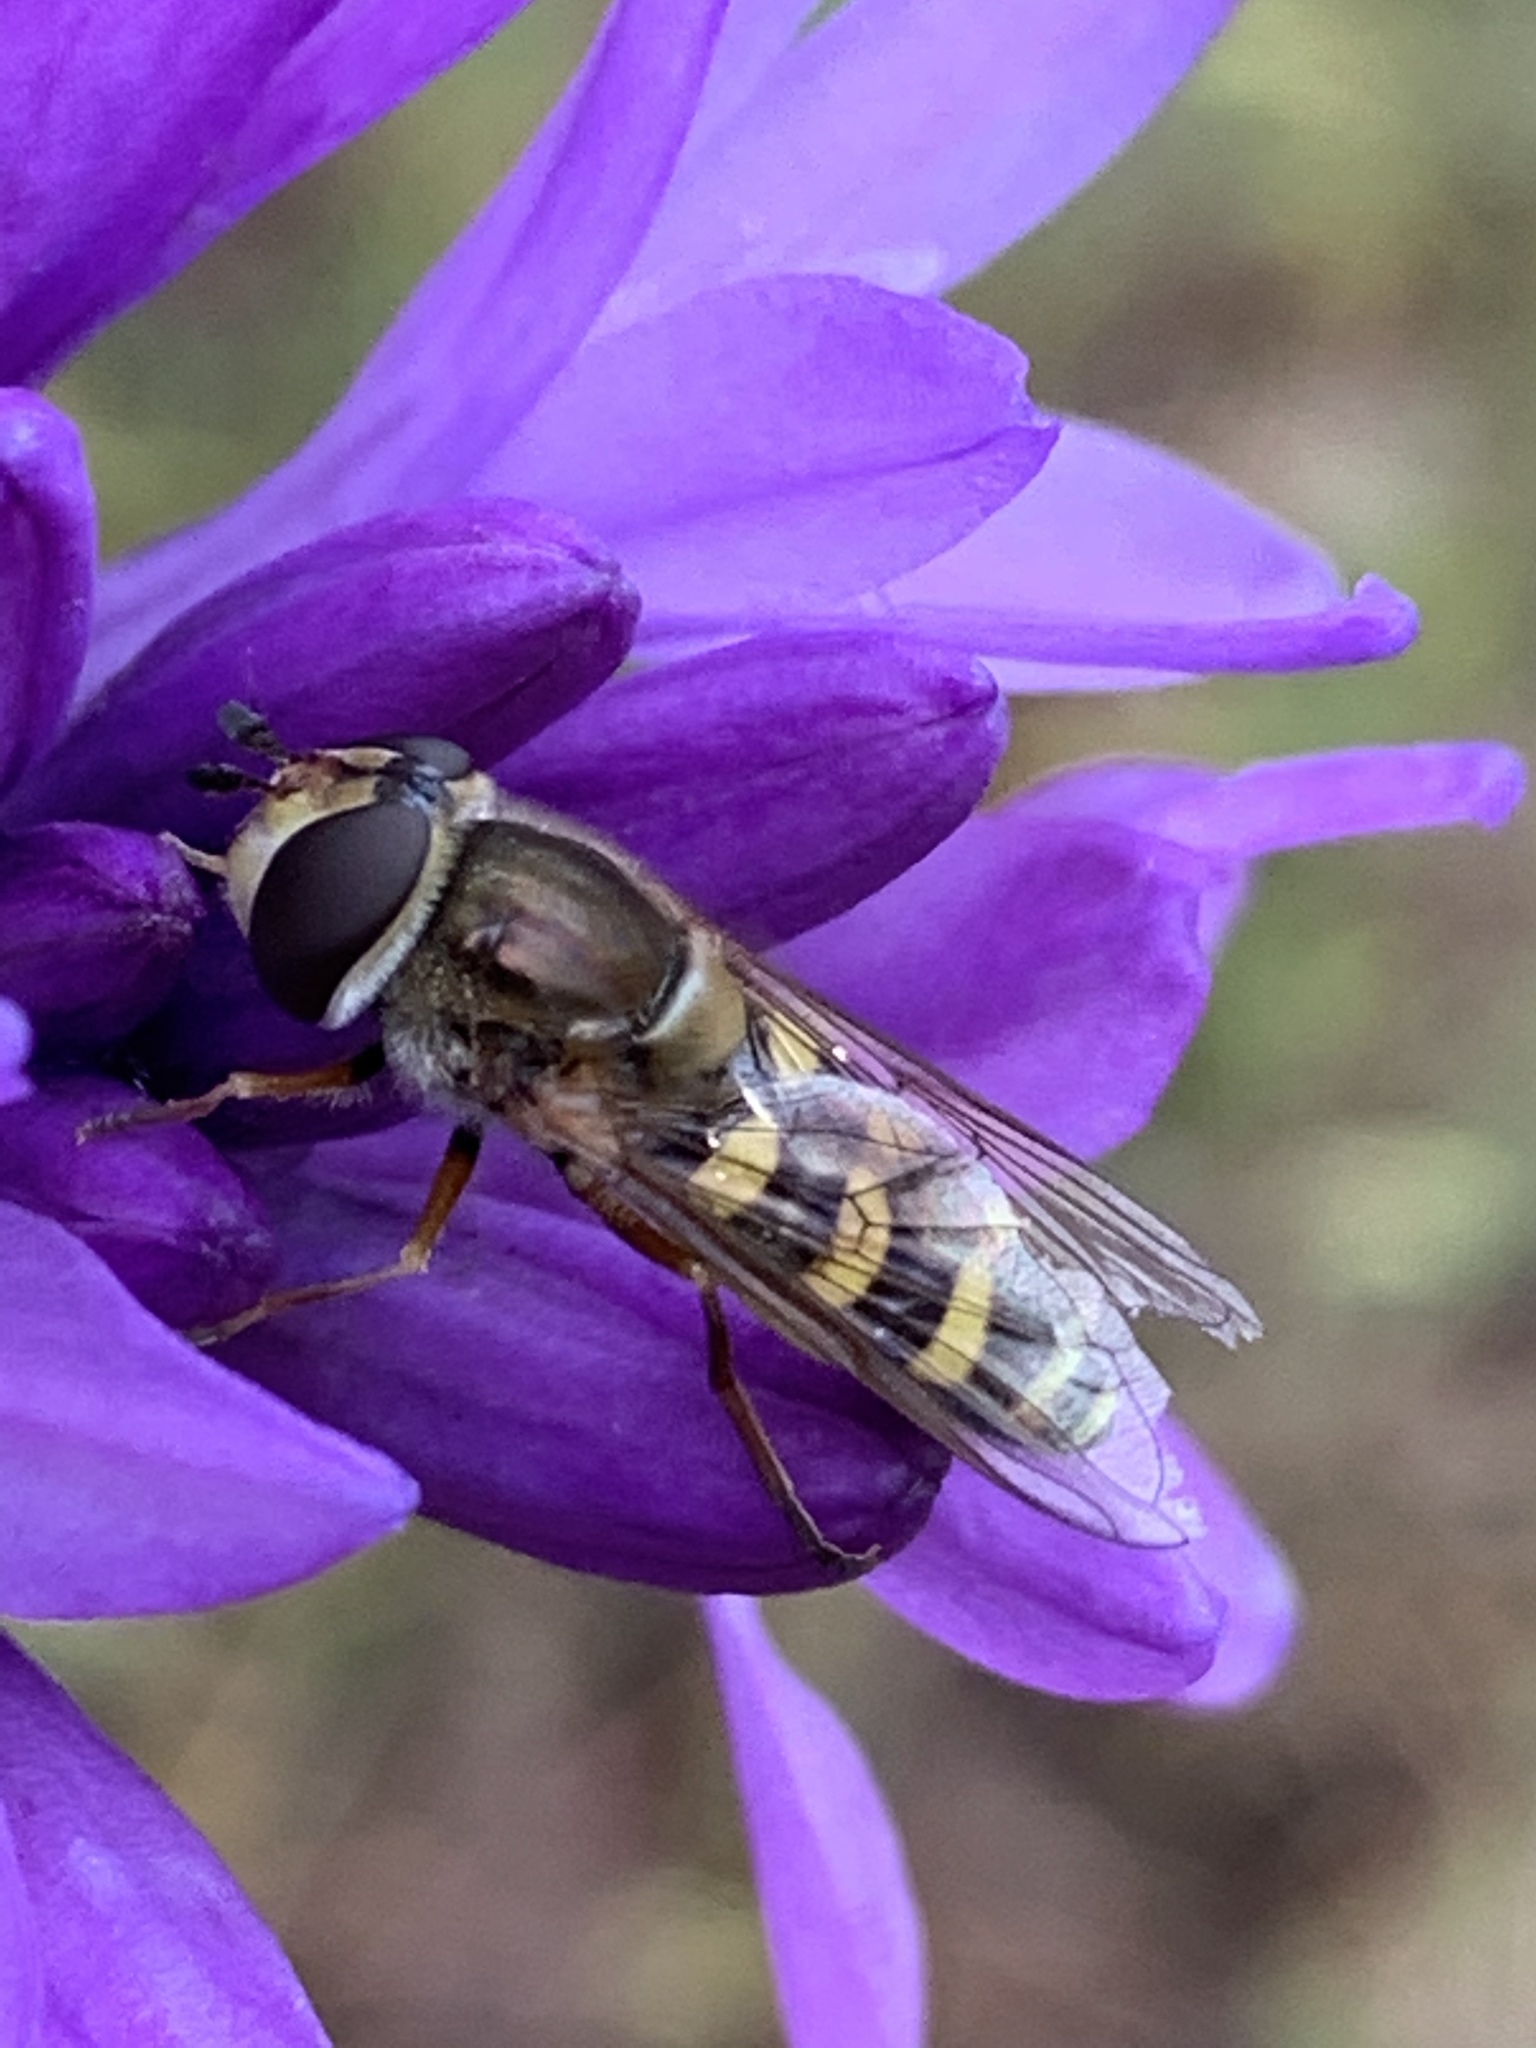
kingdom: Animalia
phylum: Arthropoda
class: Insecta
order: Diptera
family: Syrphidae
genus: Eupeodes
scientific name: Eupeodes fumipennis
